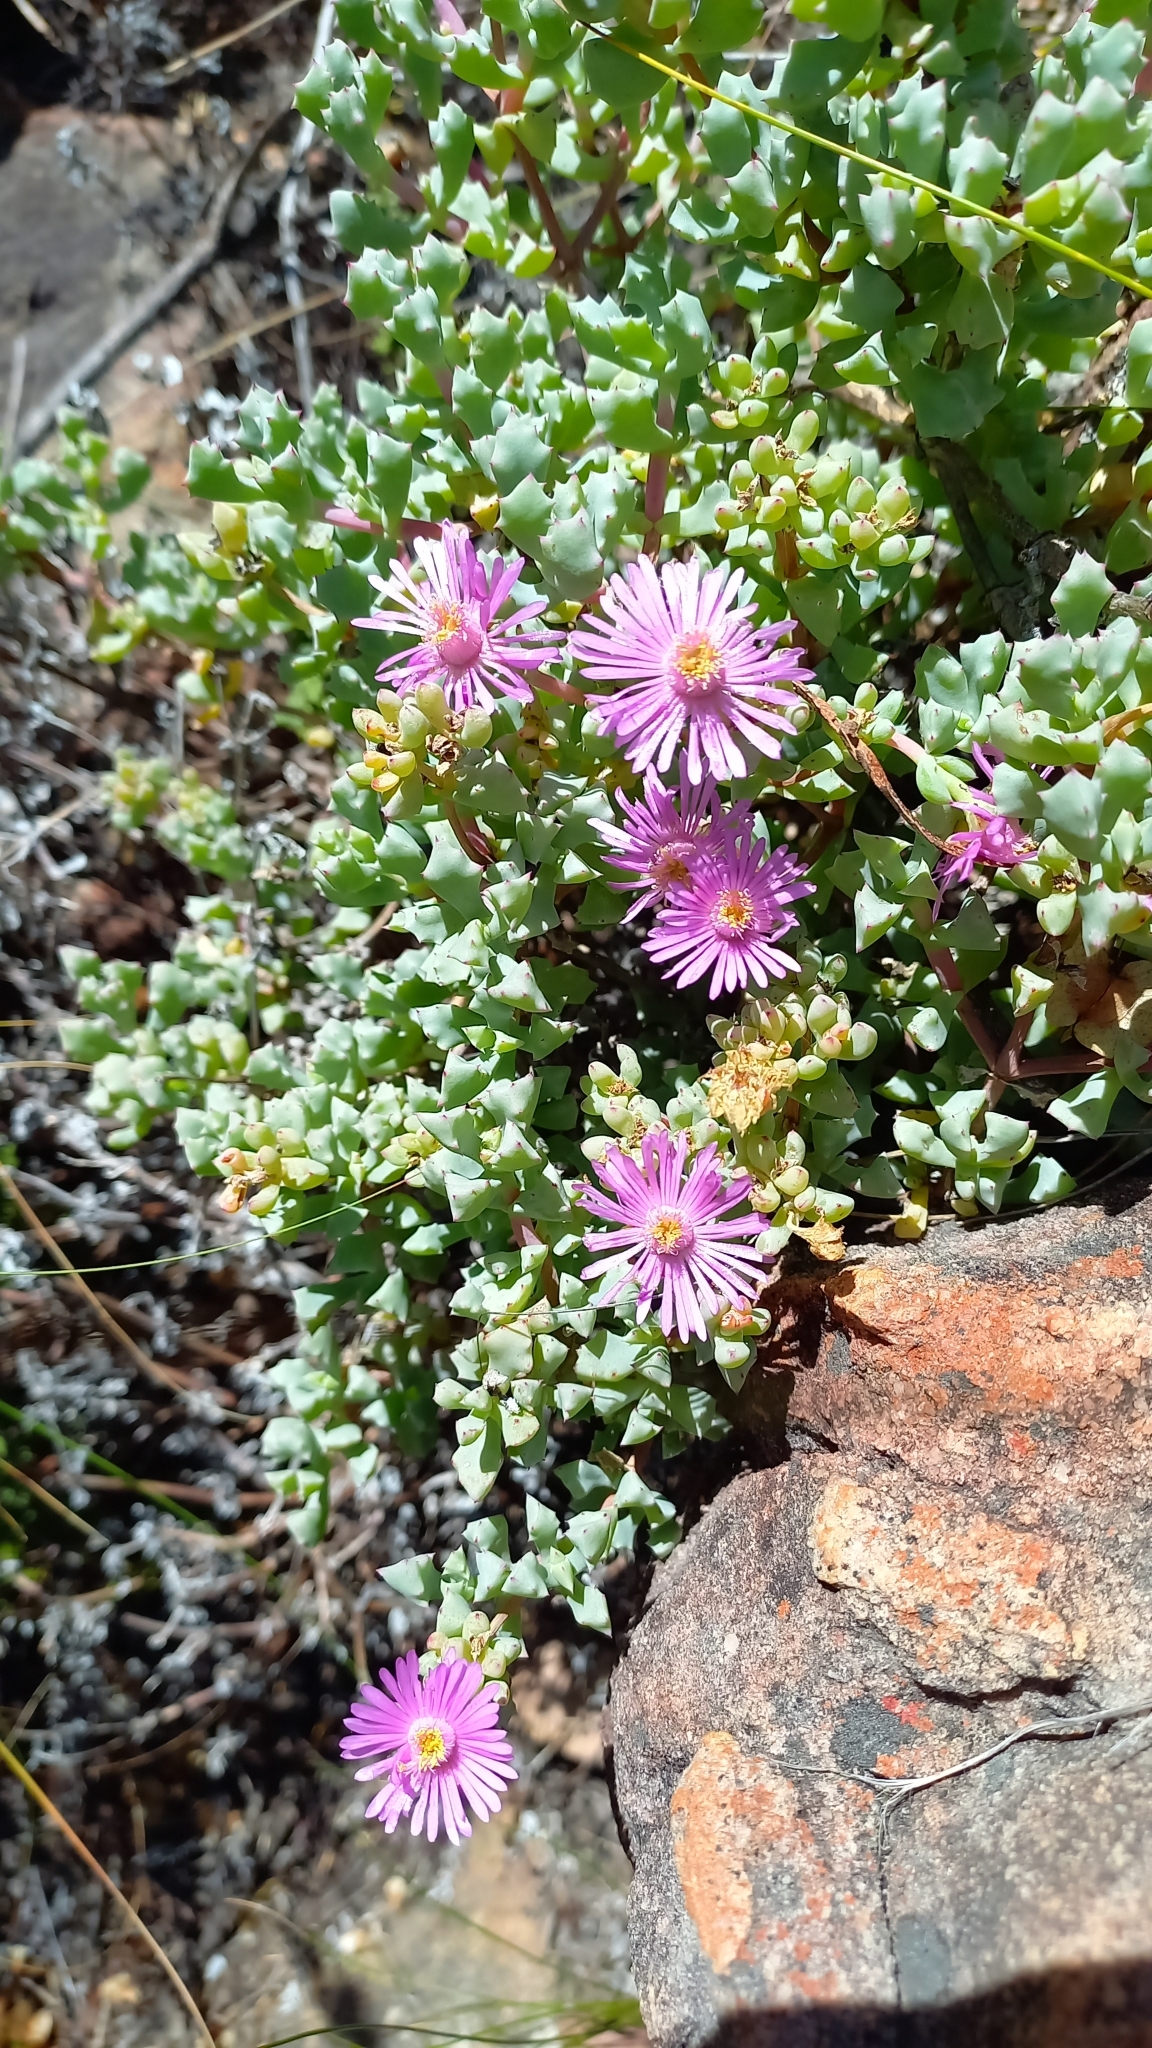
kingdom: Plantae
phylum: Tracheophyta
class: Magnoliopsida
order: Caryophyllales
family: Aizoaceae
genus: Oscularia
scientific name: Oscularia deltoides
